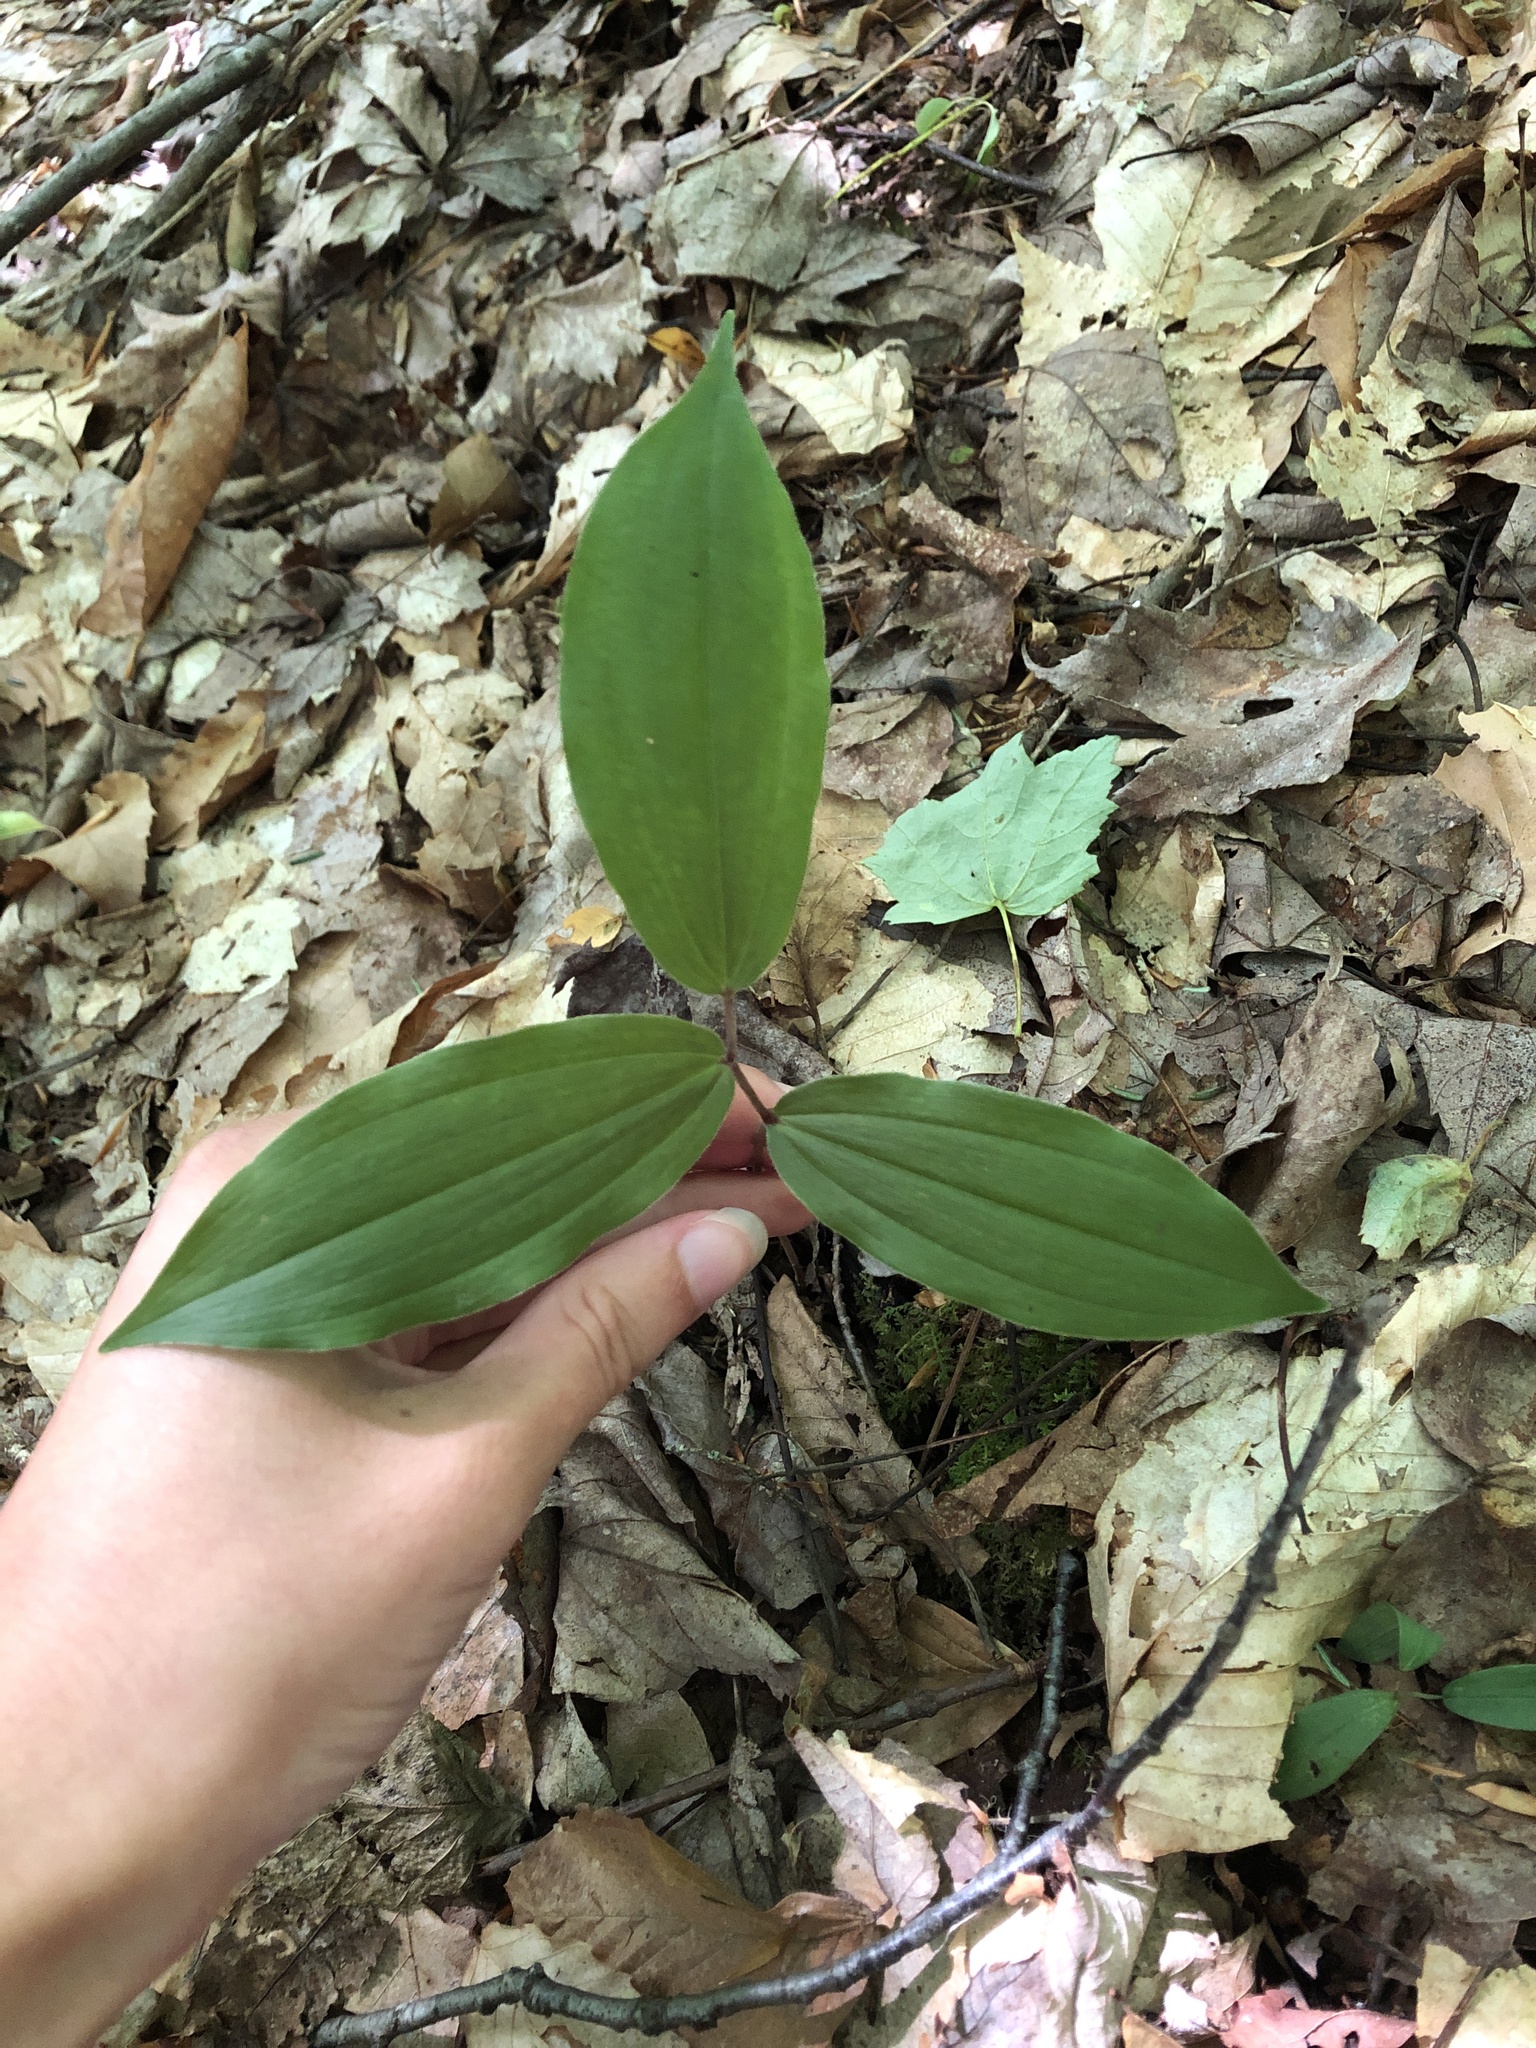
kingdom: Plantae
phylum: Tracheophyta
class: Liliopsida
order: Asparagales
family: Asparagaceae
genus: Maianthemum
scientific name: Maianthemum racemosum
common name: False spikenard
